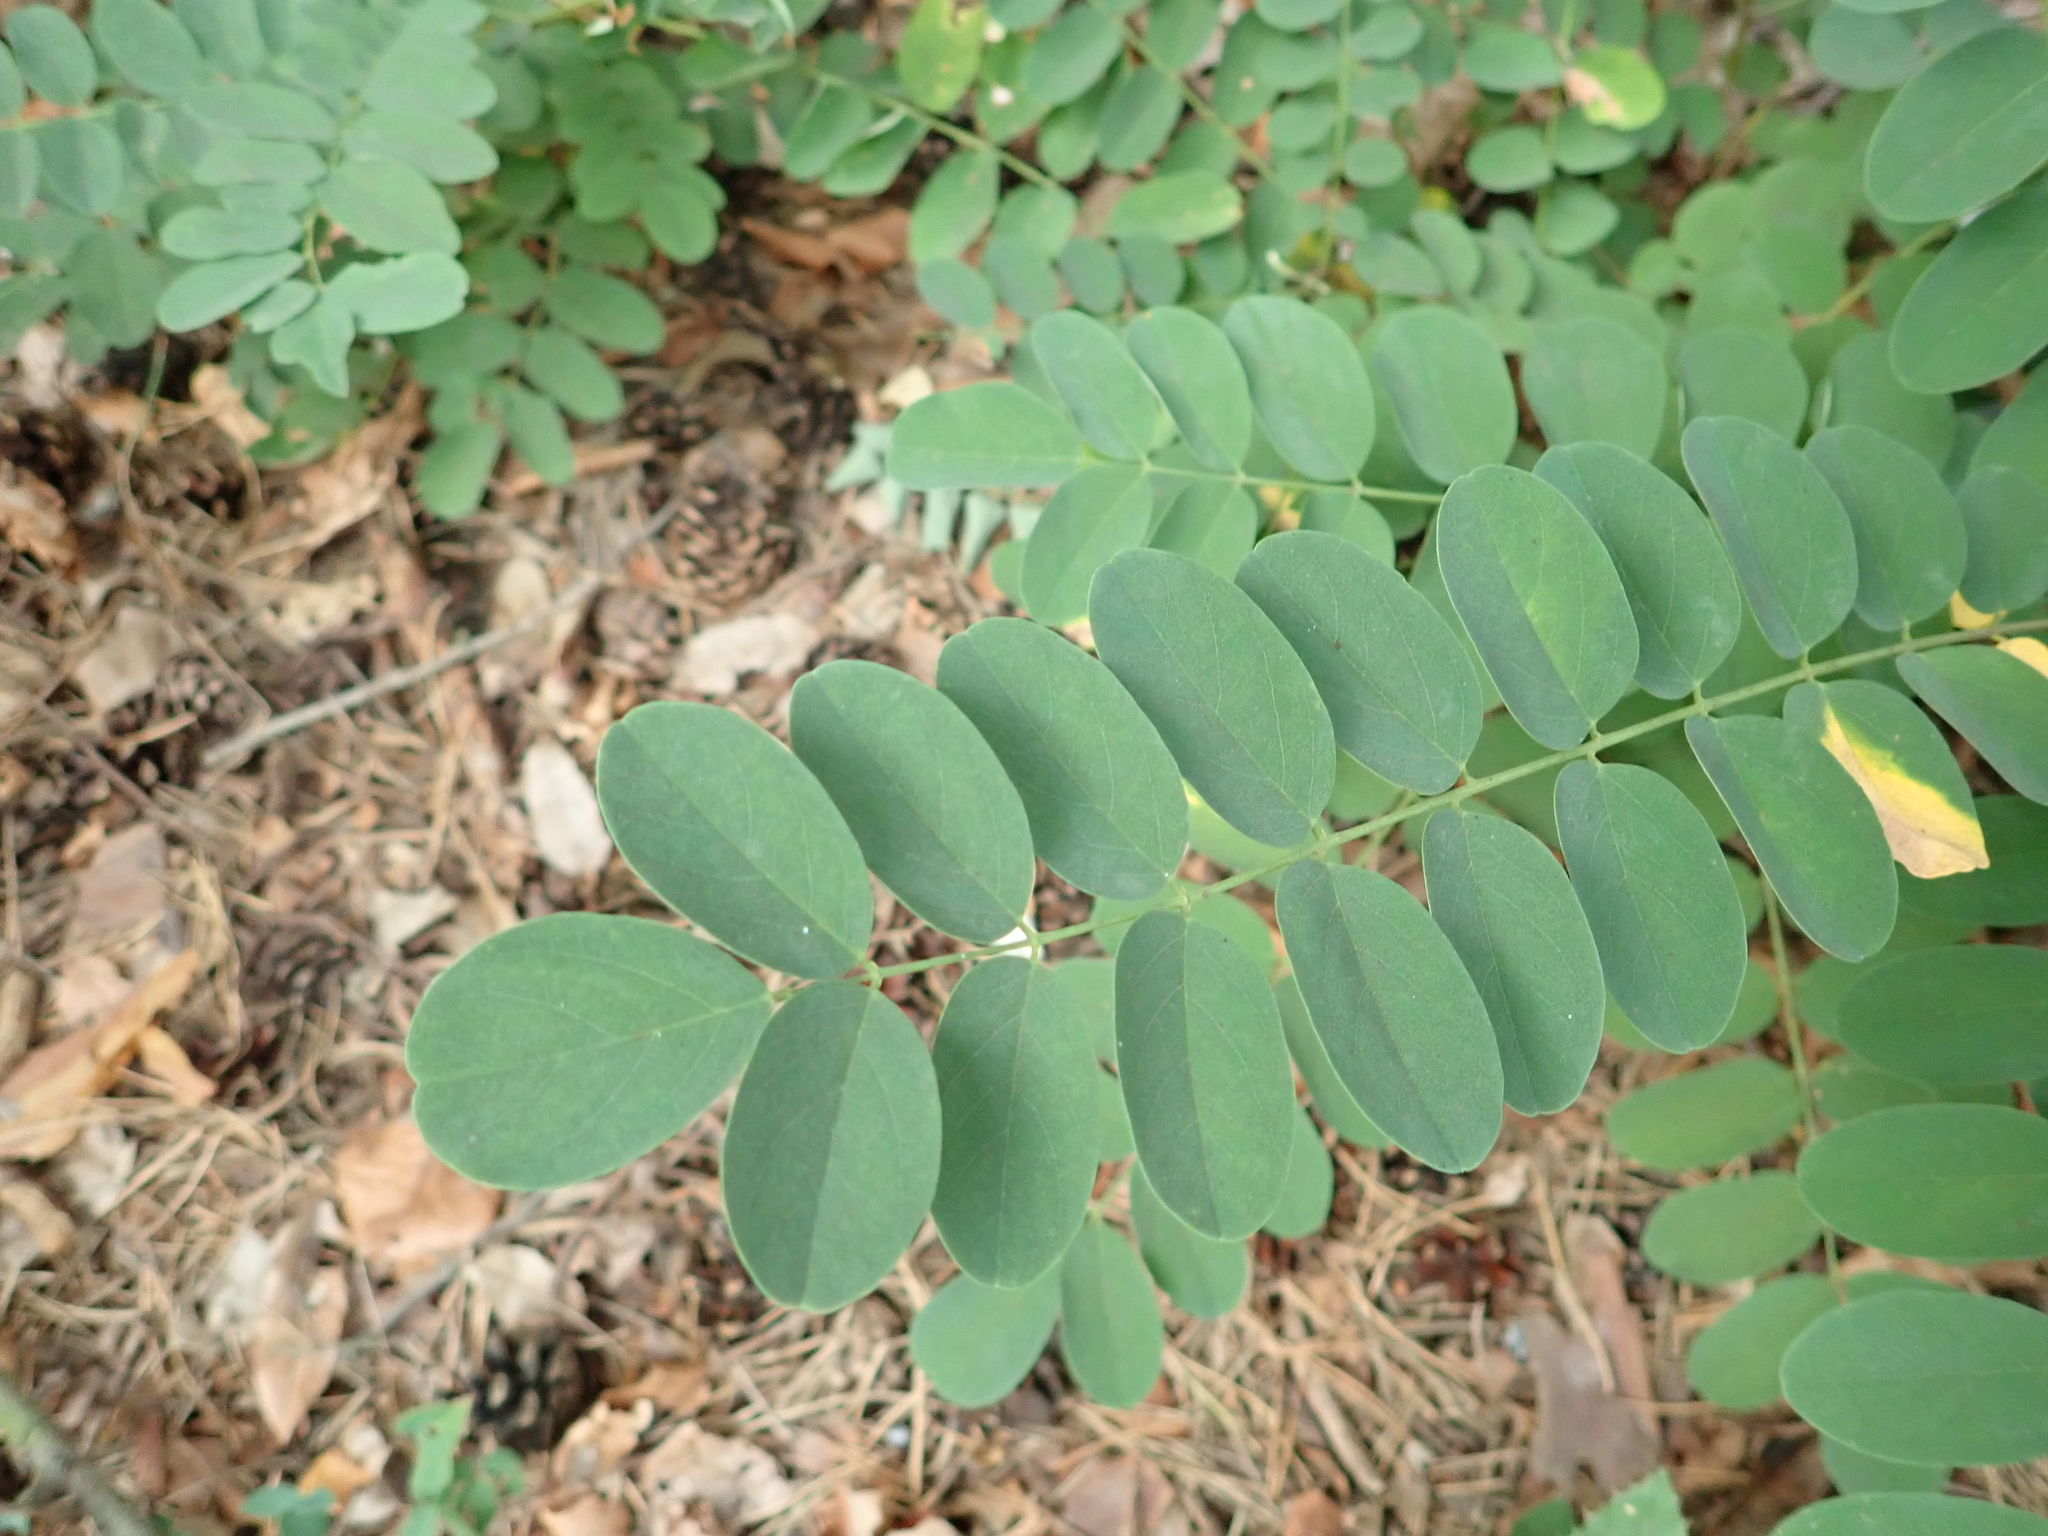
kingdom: Plantae
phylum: Tracheophyta
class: Magnoliopsida
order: Fabales
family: Fabaceae
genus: Robinia
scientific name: Robinia pseudoacacia
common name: Black locust
